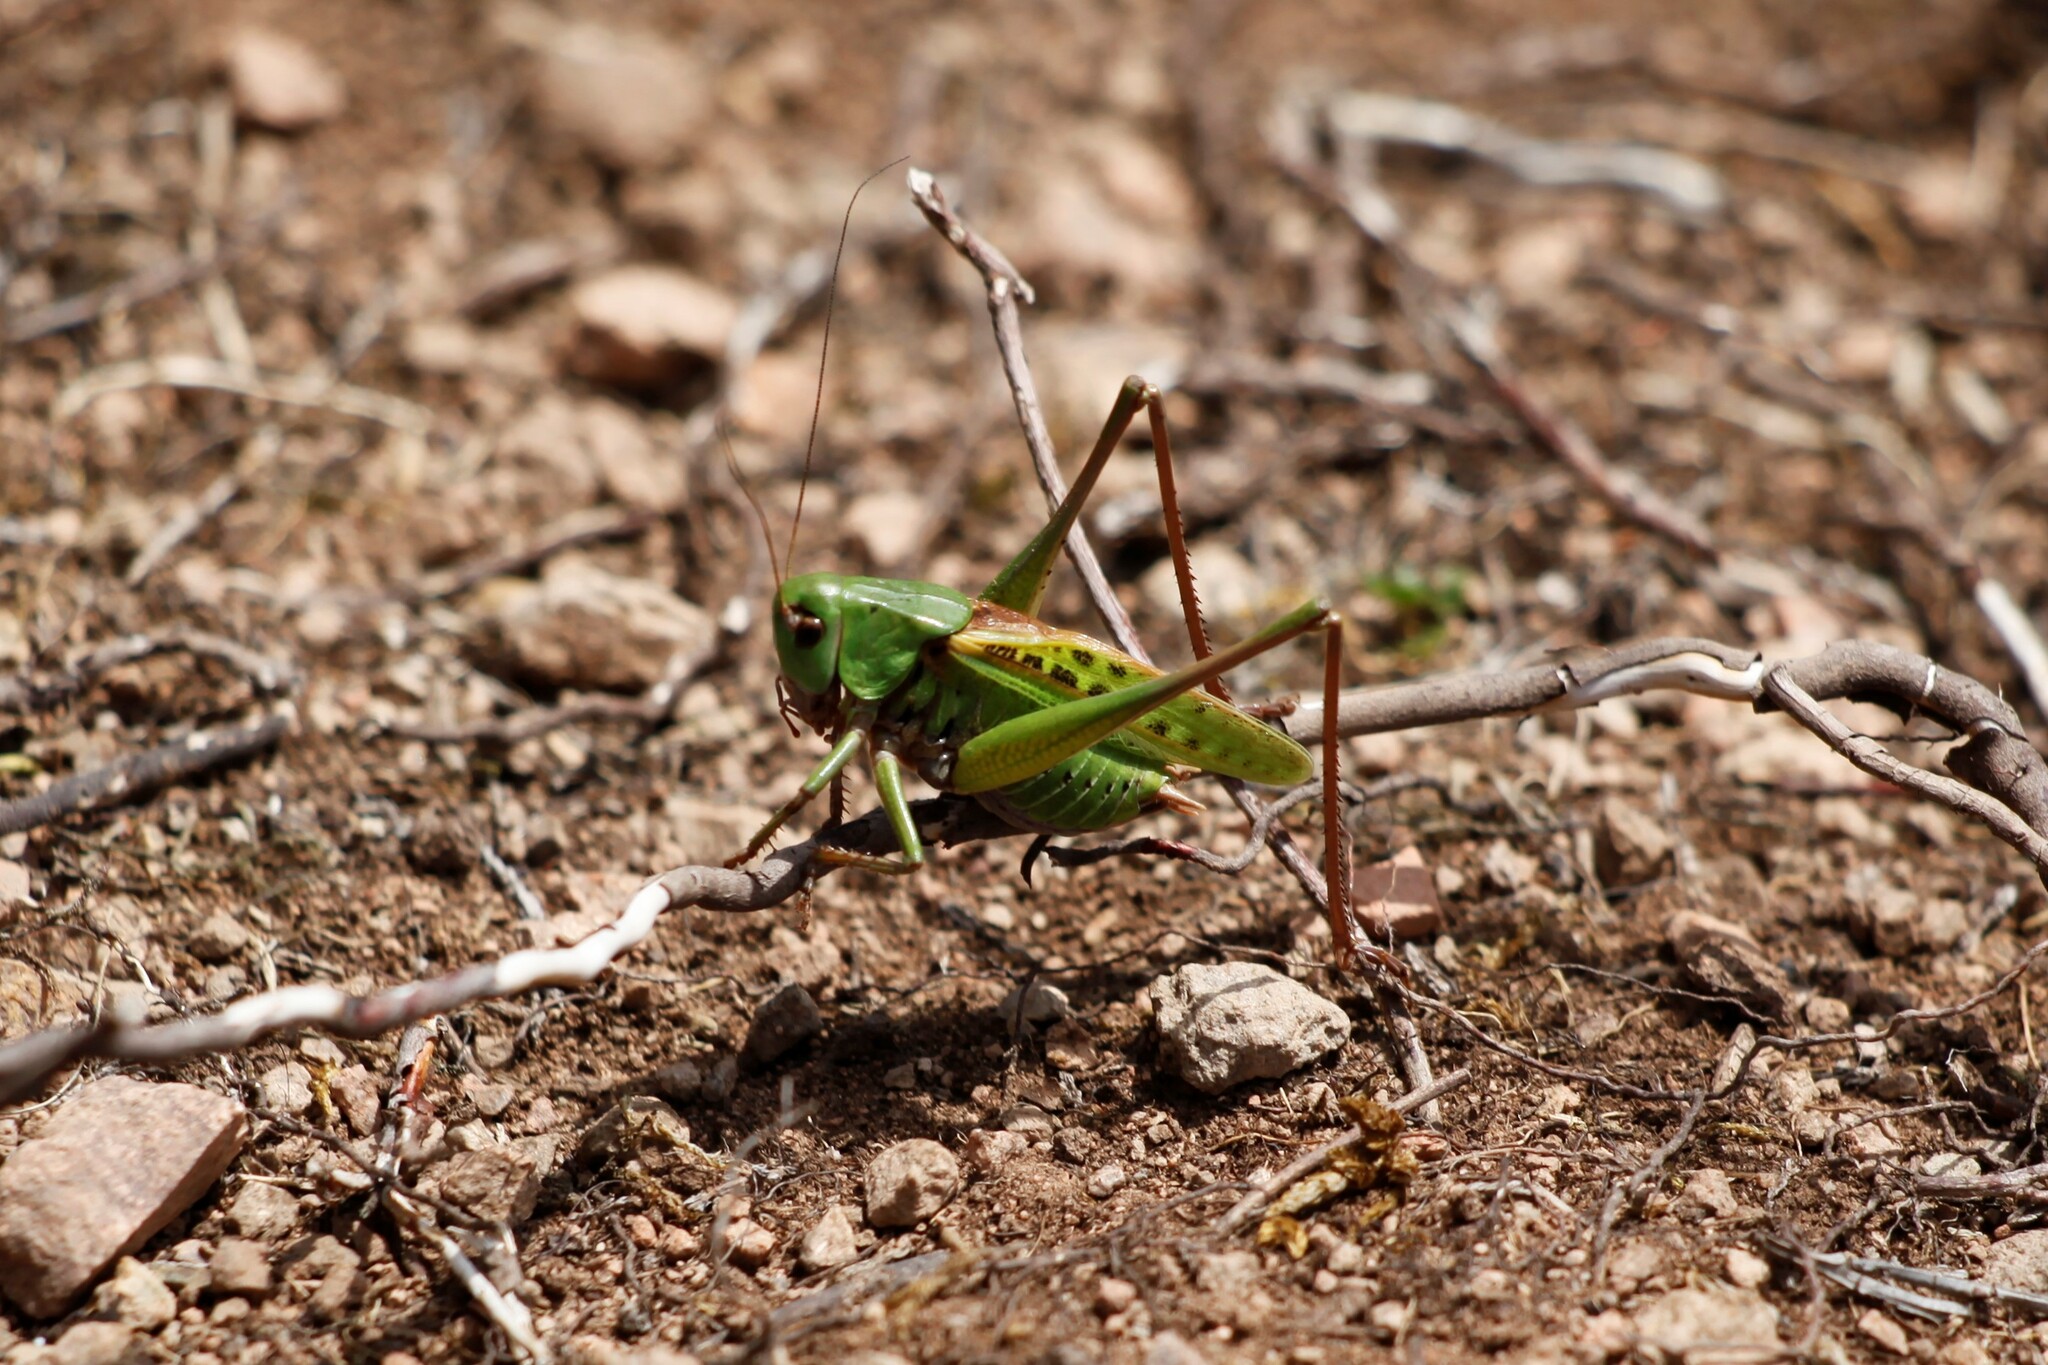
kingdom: Animalia
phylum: Arthropoda
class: Insecta
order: Orthoptera
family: Tettigoniidae
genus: Decticus
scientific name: Decticus verrucivorus
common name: Wart-biter
